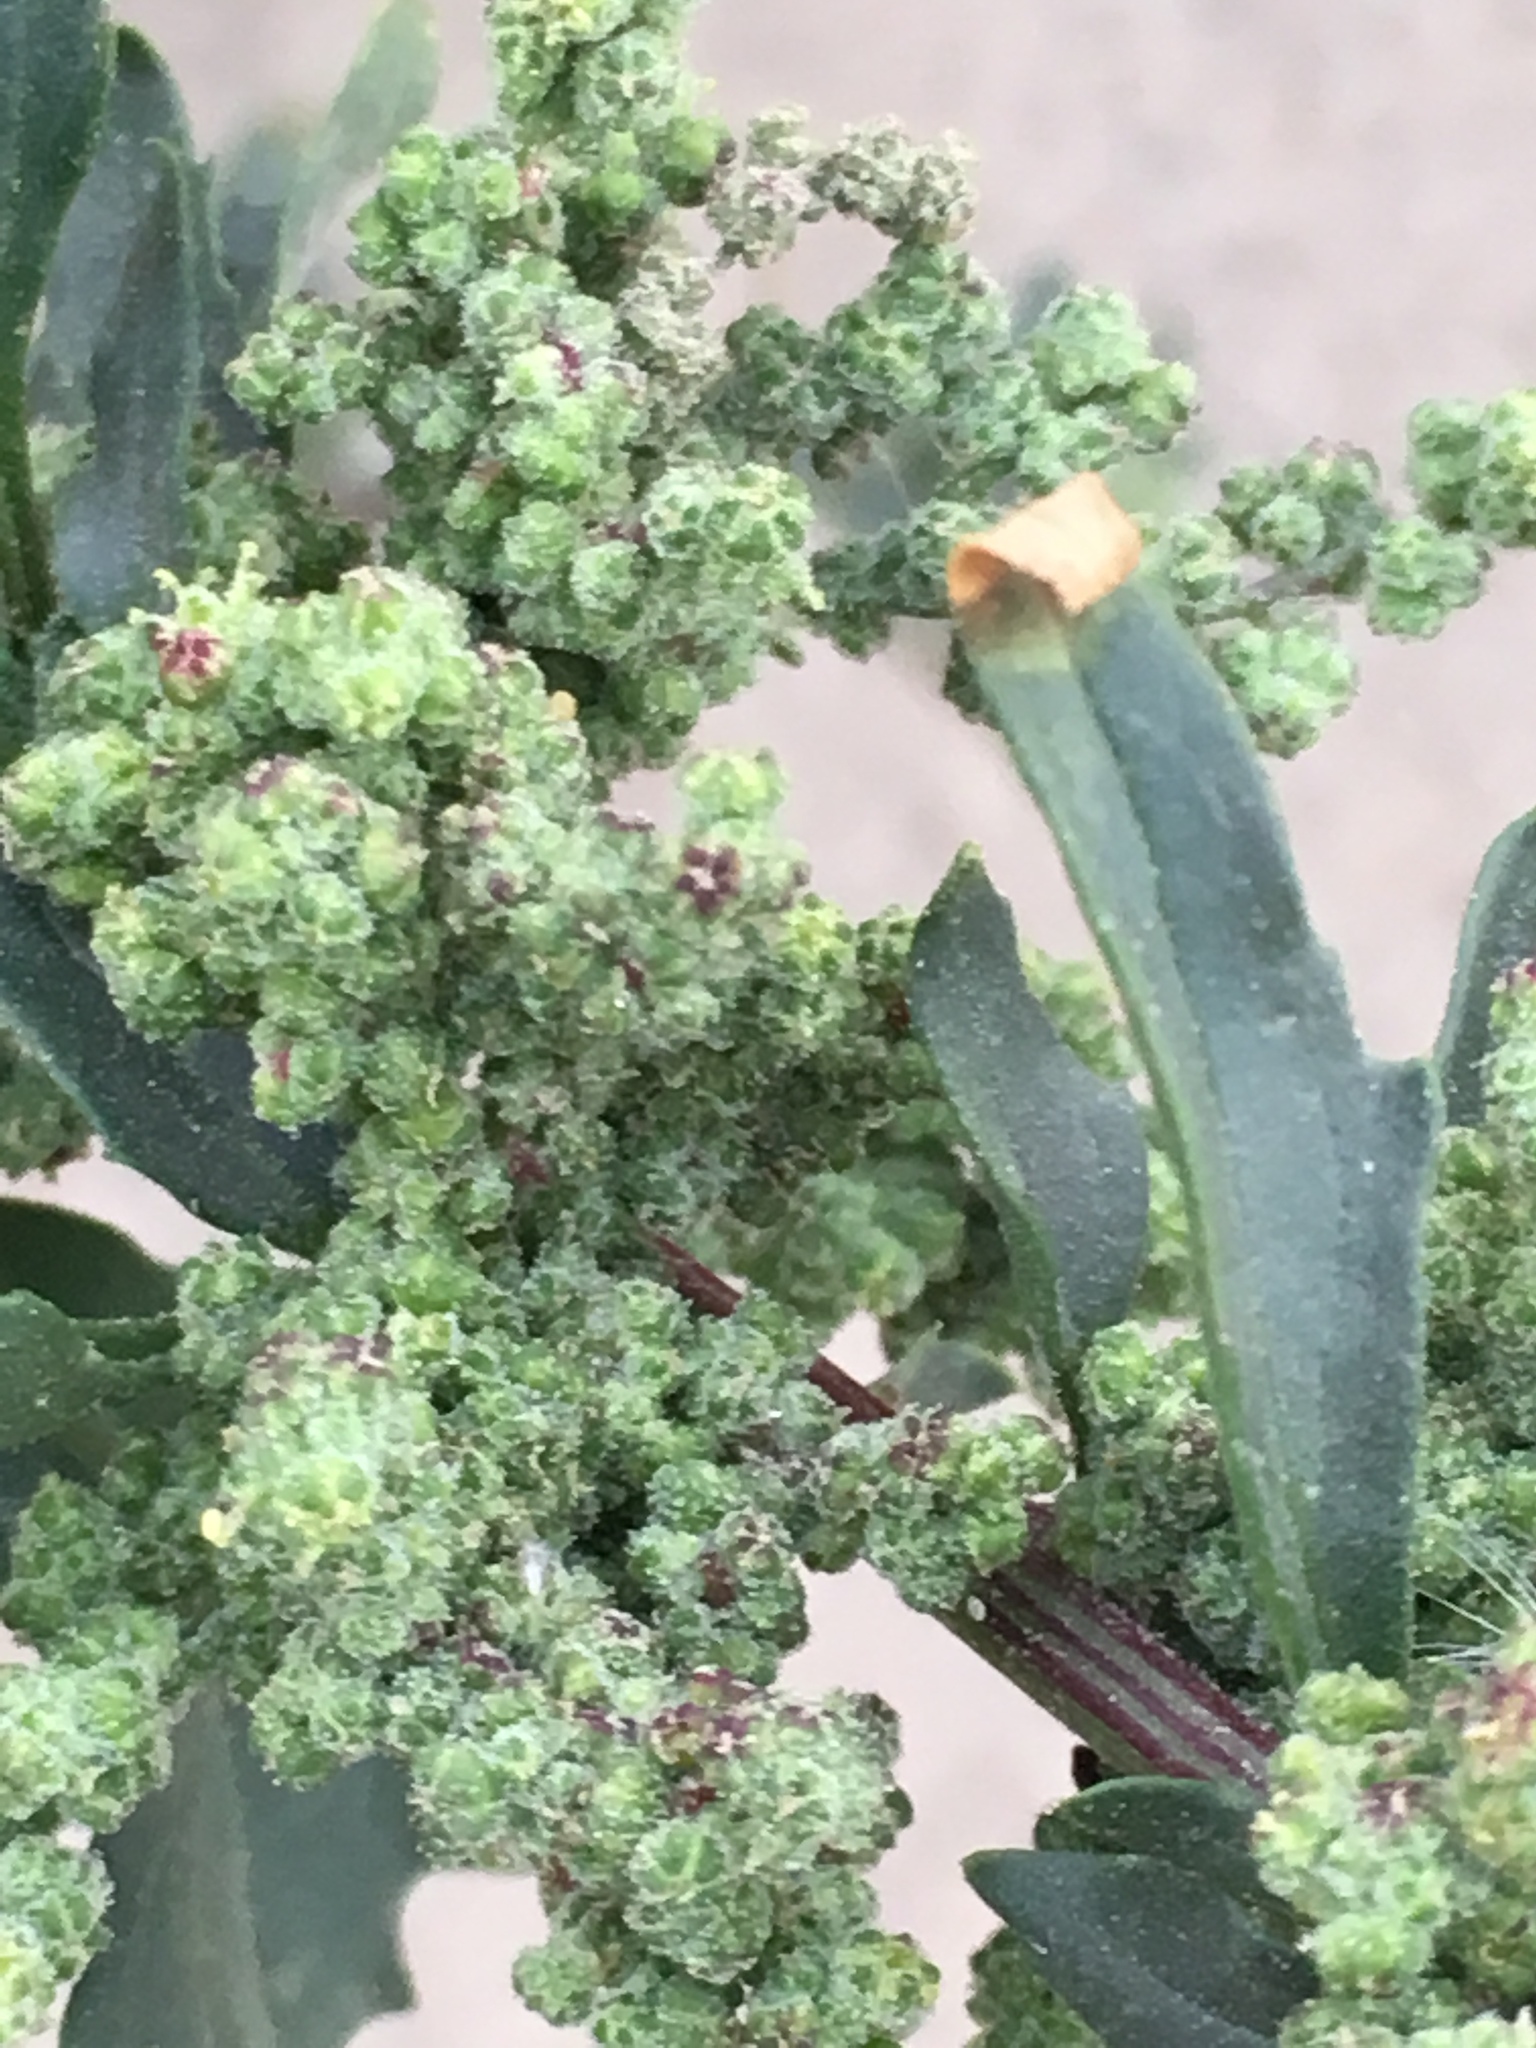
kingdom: Plantae
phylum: Tracheophyta
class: Magnoliopsida
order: Caryophyllales
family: Amaranthaceae
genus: Chenopodiastrum
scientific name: Chenopodiastrum murale
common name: Sowbane
